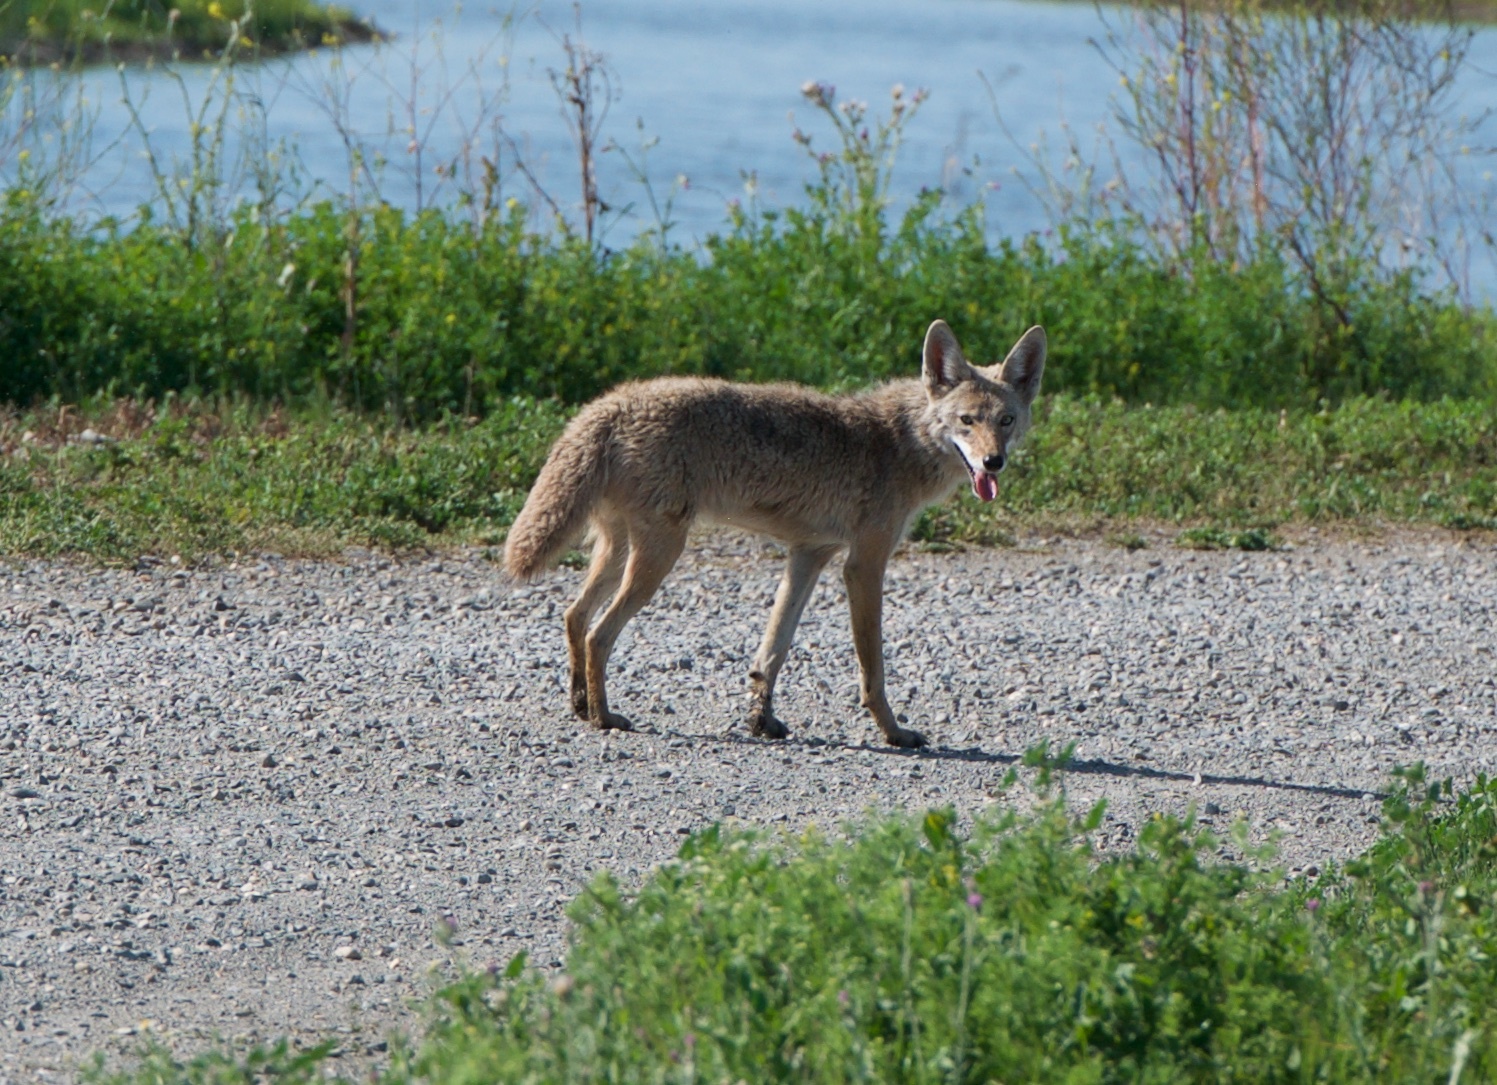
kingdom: Animalia
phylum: Chordata
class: Mammalia
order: Carnivora
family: Canidae
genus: Canis
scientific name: Canis latrans
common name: Coyote
